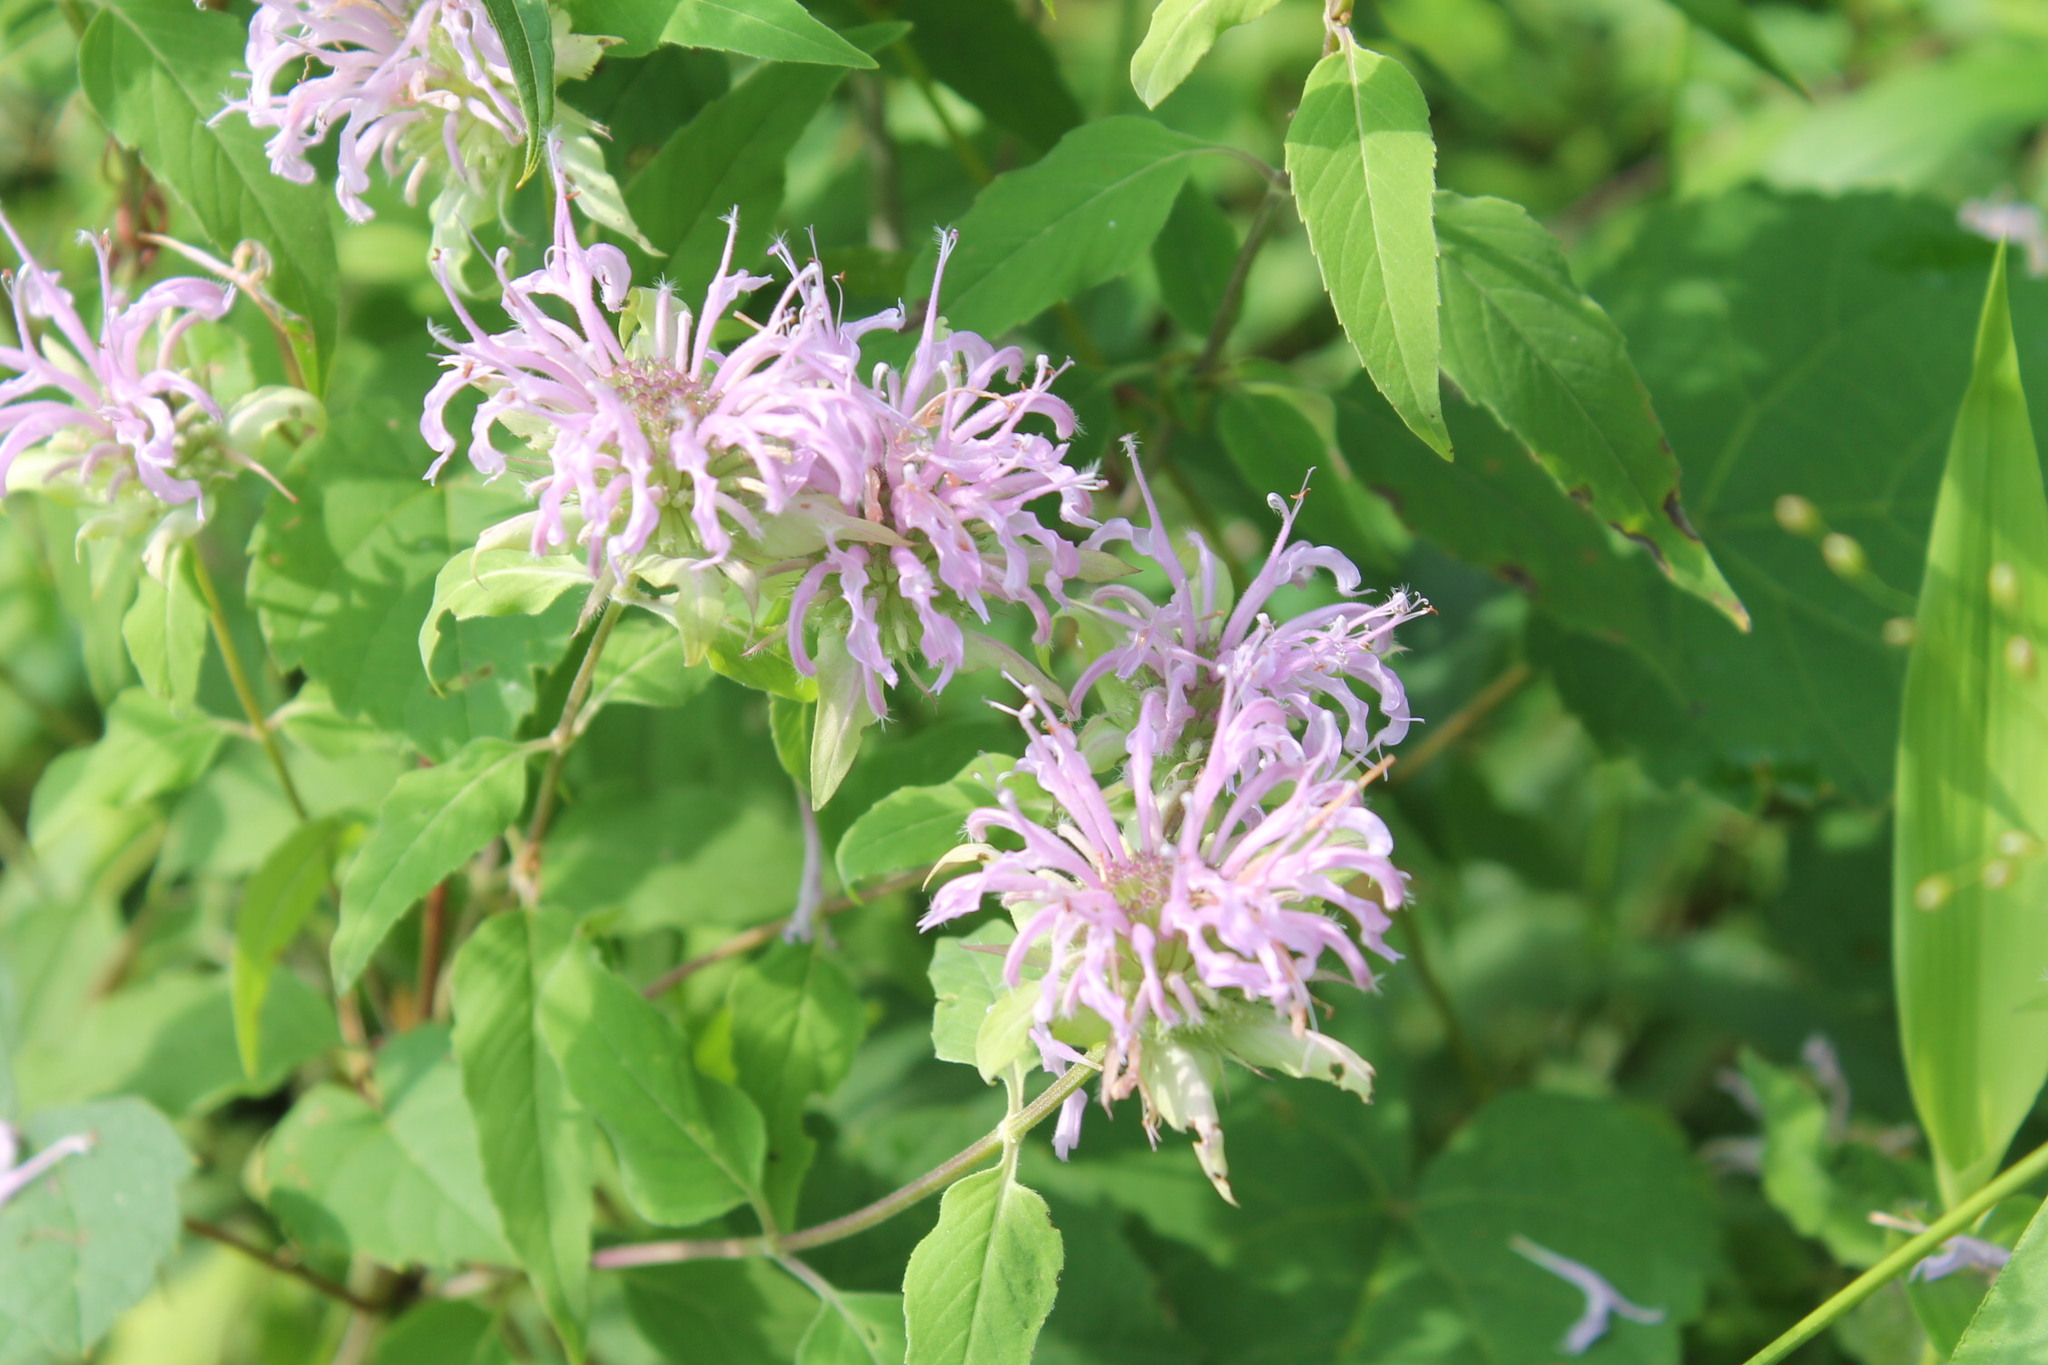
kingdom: Plantae
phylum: Tracheophyta
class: Magnoliopsida
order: Lamiales
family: Lamiaceae
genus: Monarda
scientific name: Monarda fistulosa
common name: Purple beebalm
